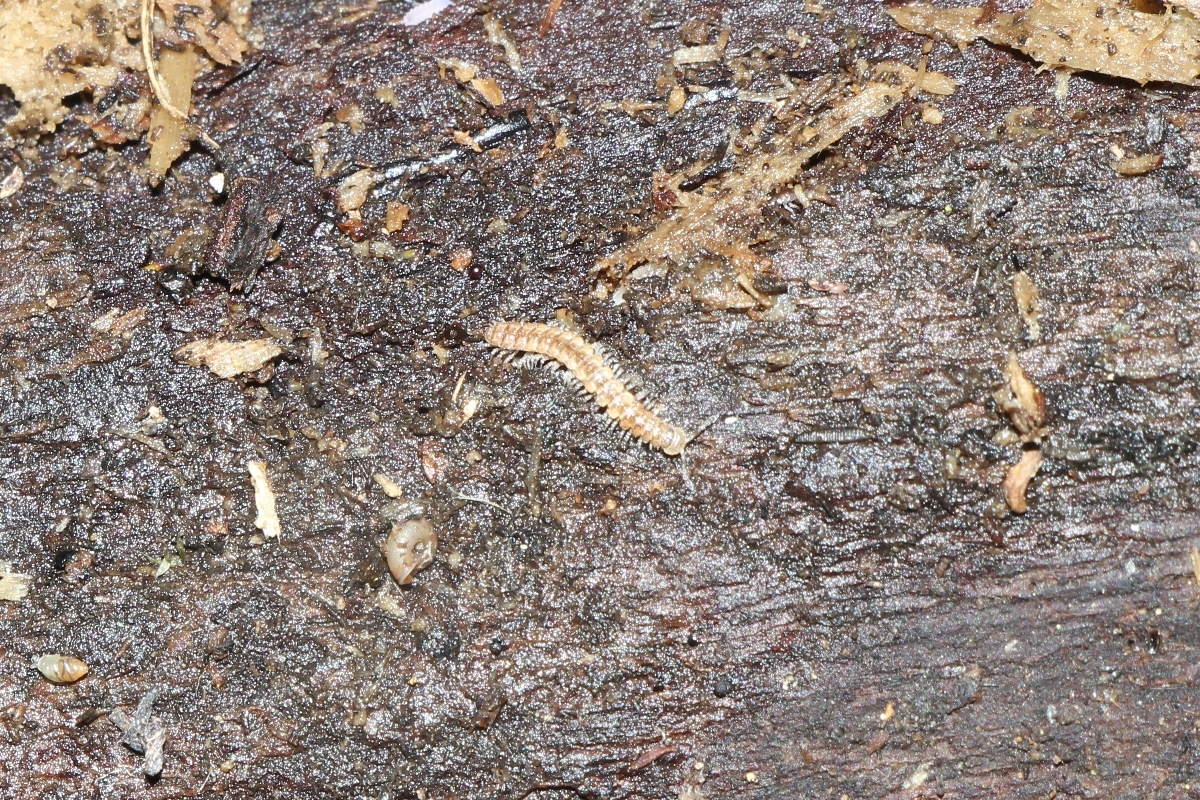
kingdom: Animalia
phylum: Arthropoda
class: Diplopoda
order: Polydesmida
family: Polydesmidae
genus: Brachydesmus
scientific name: Brachydesmus superus
